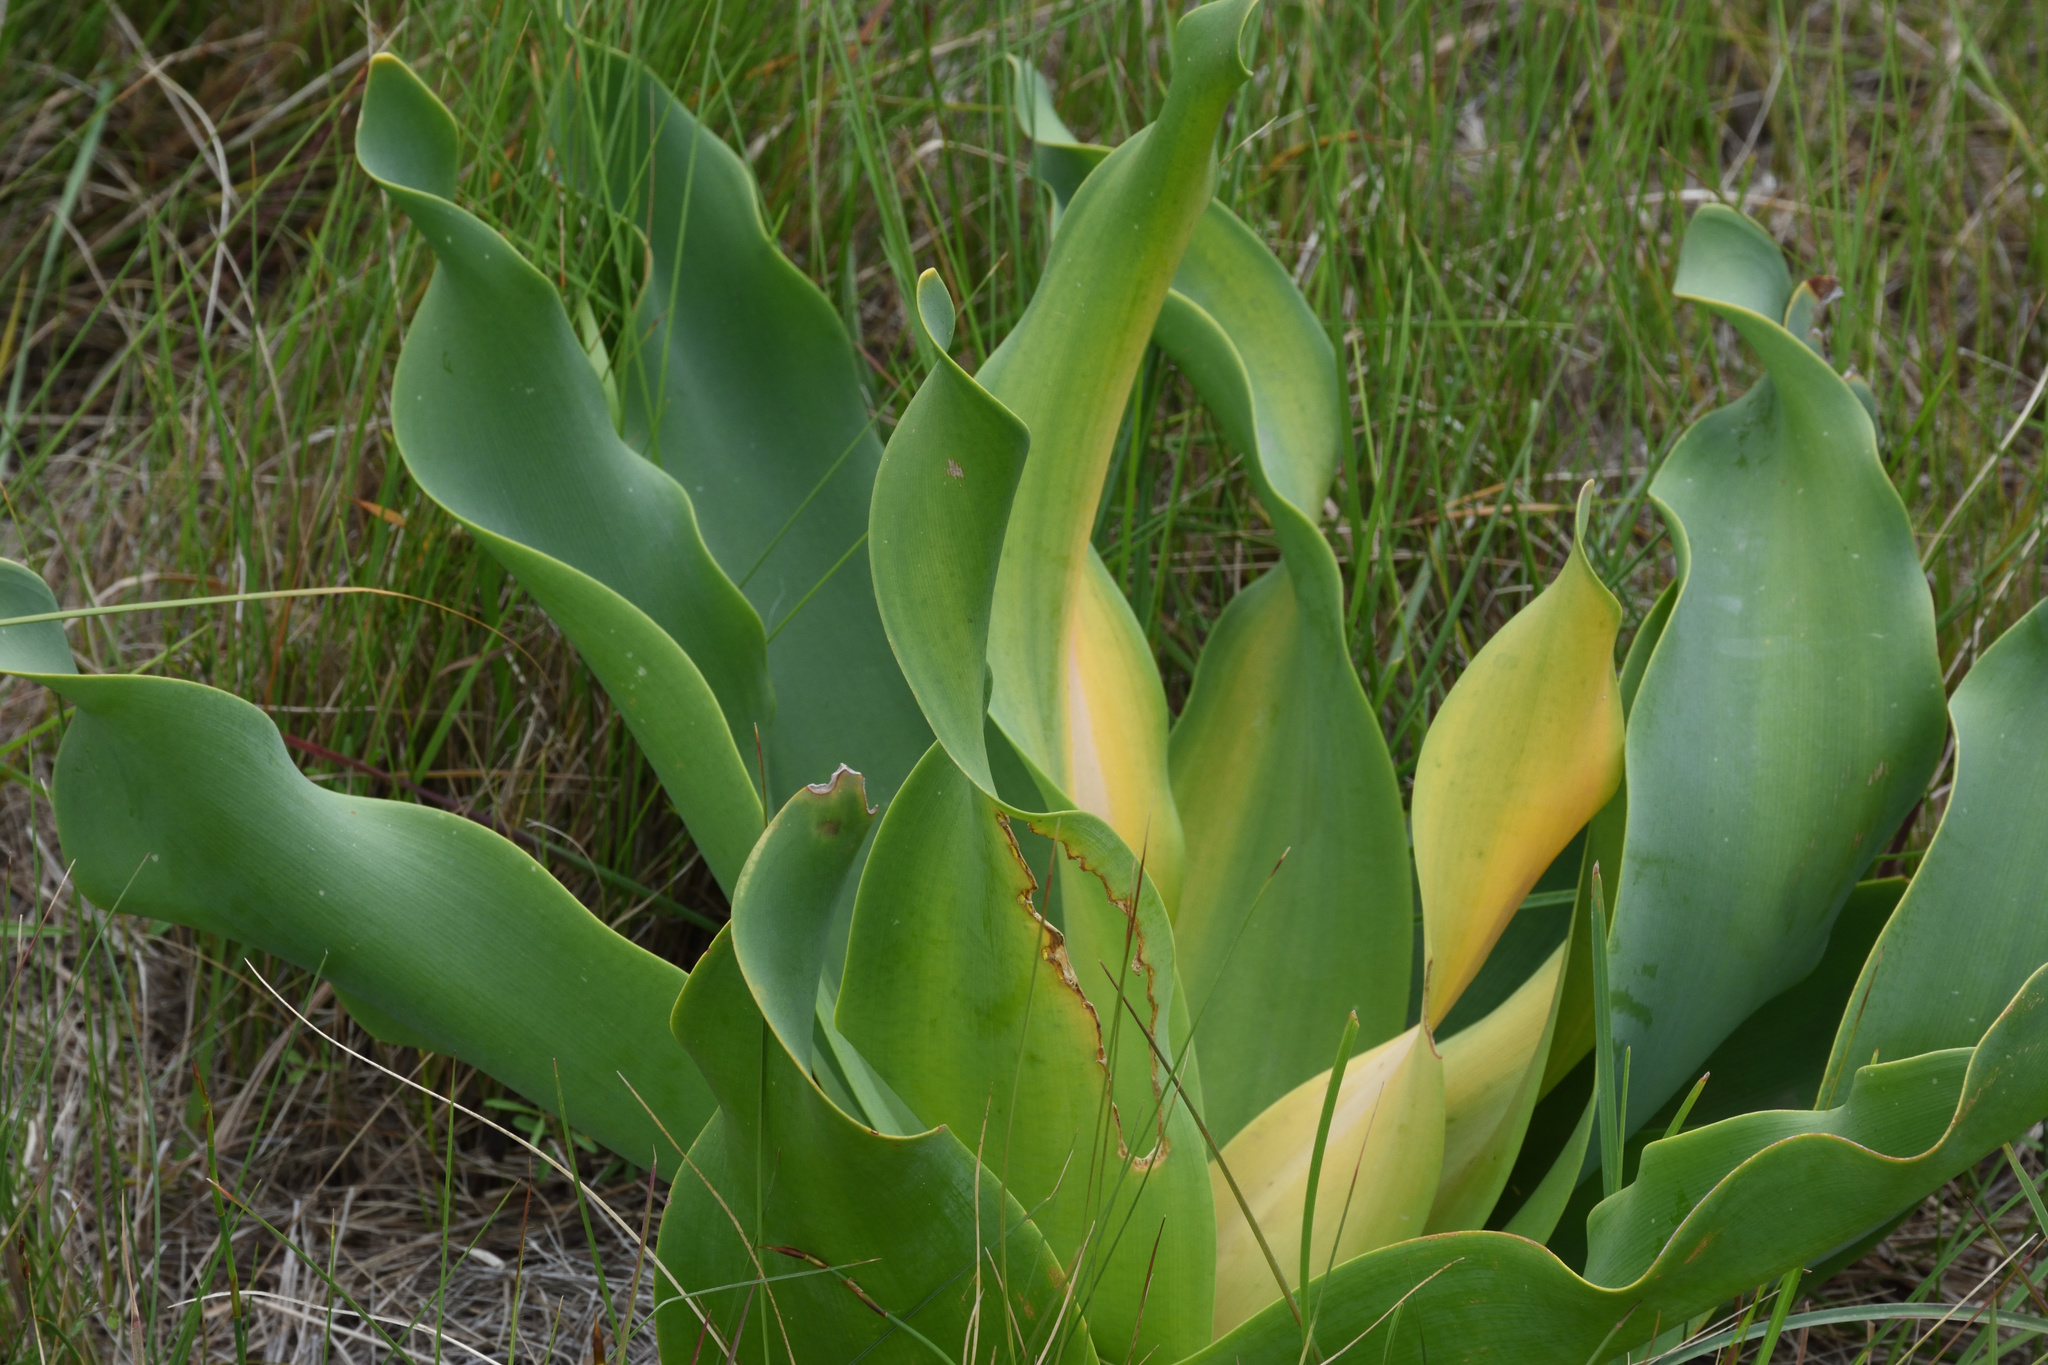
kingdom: Plantae
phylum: Tracheophyta
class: Liliopsida
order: Asparagales
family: Amaryllidaceae
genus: Brunsvigia
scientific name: Brunsvigia litoralis
